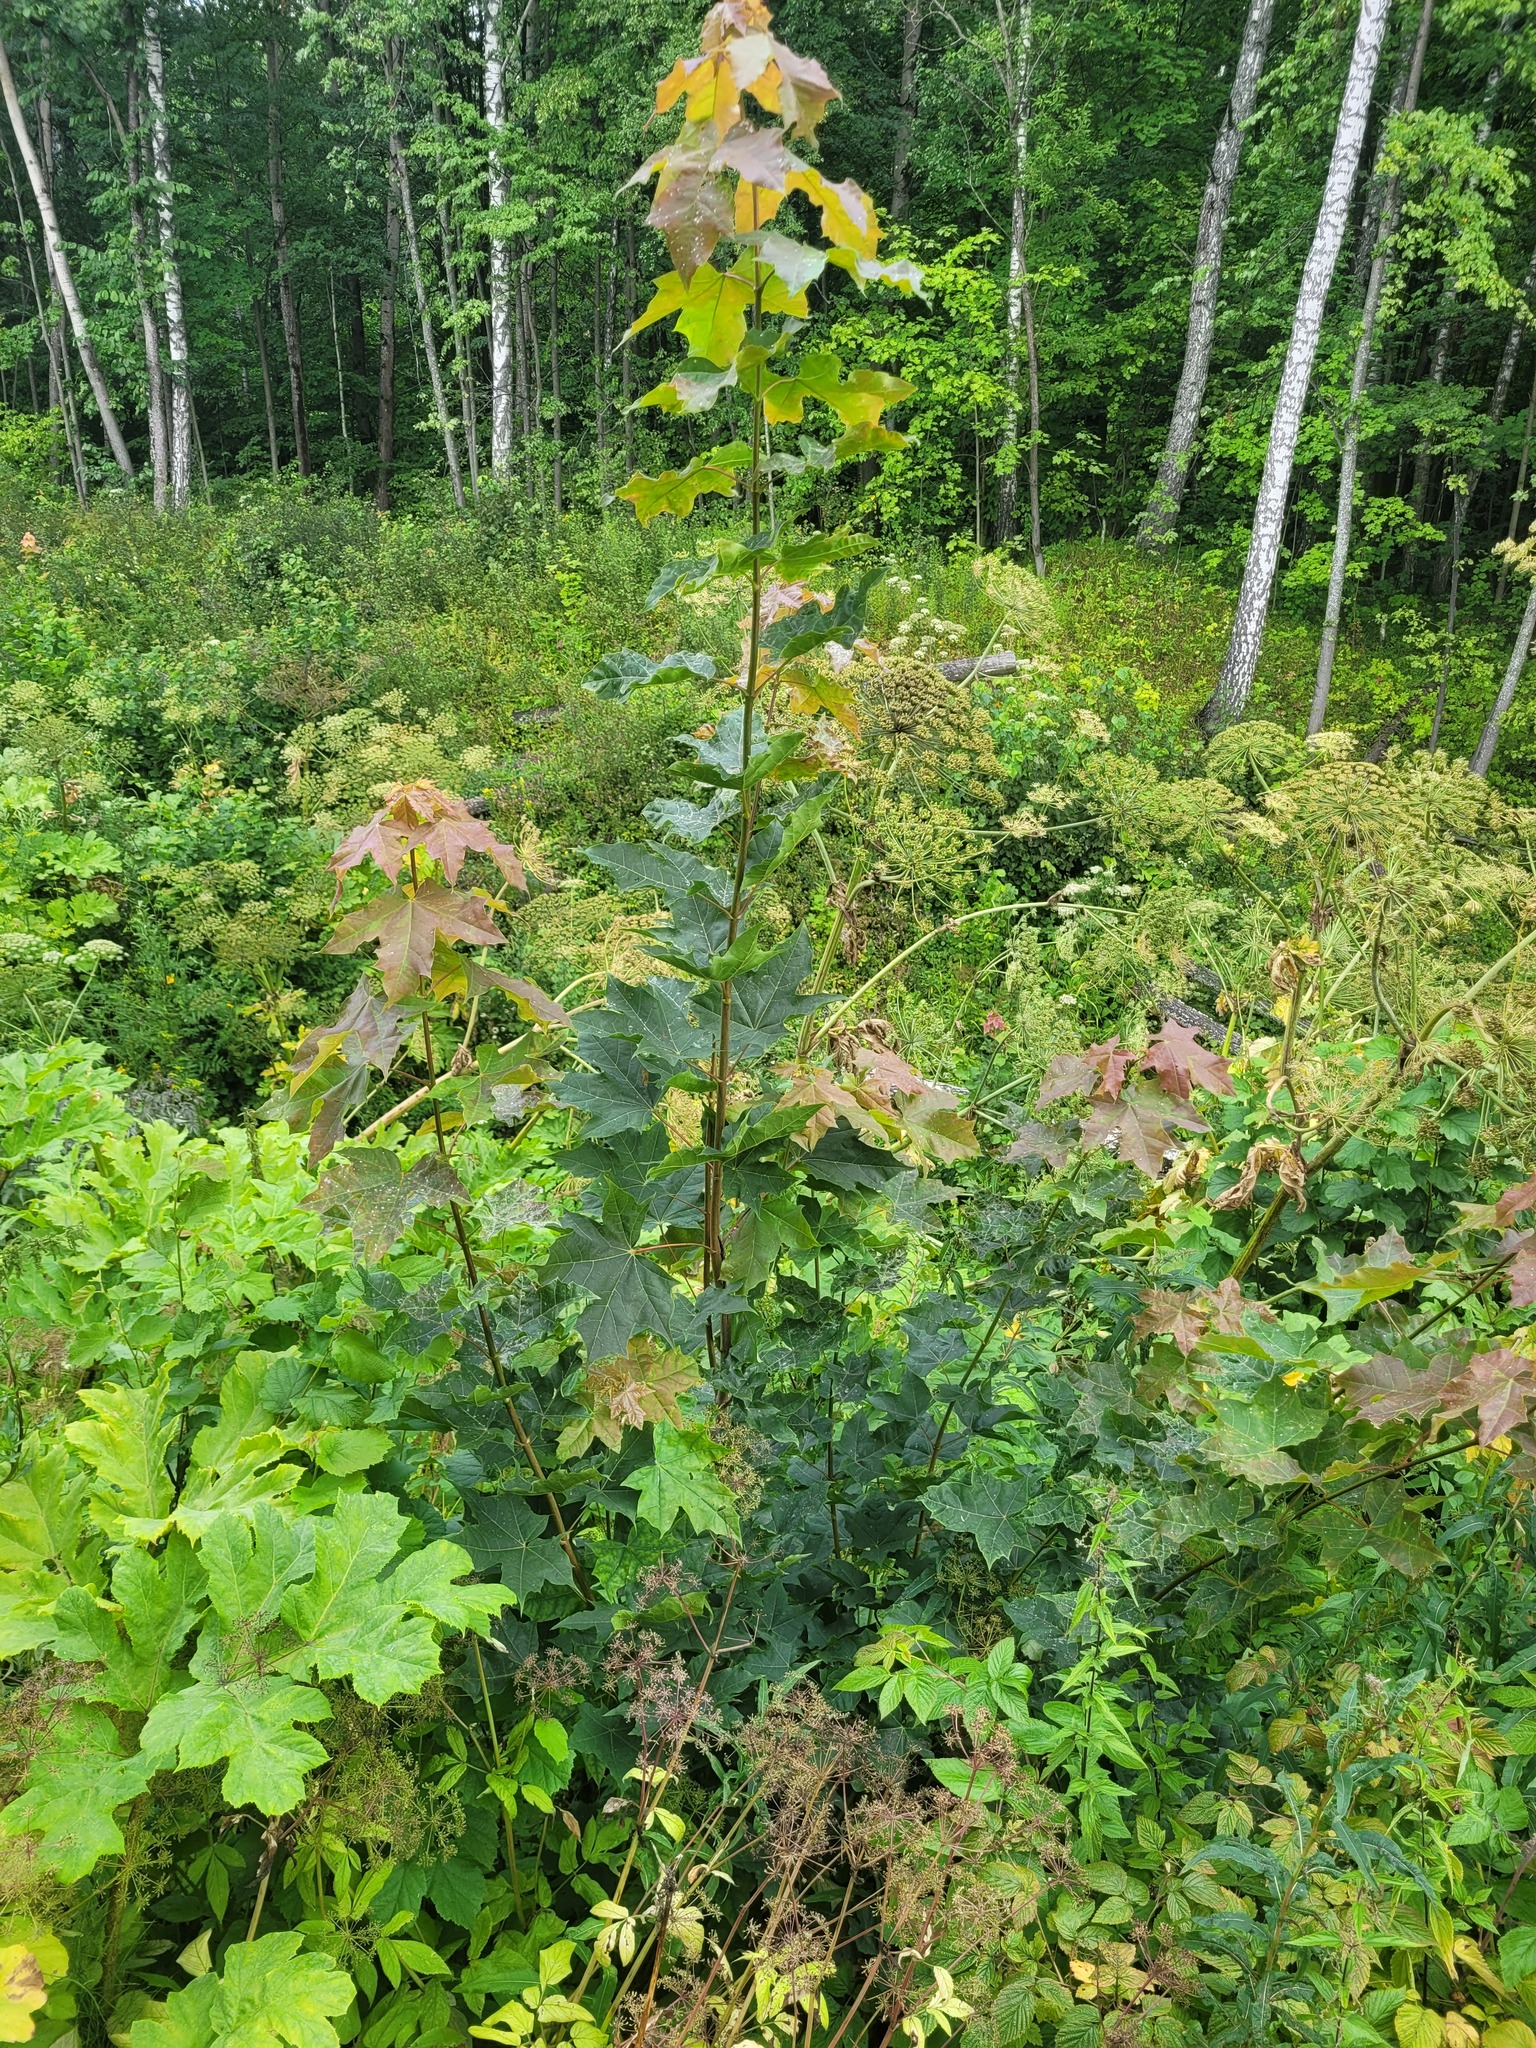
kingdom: Plantae
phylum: Tracheophyta
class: Magnoliopsida
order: Sapindales
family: Sapindaceae
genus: Acer
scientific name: Acer platanoides
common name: Norway maple
